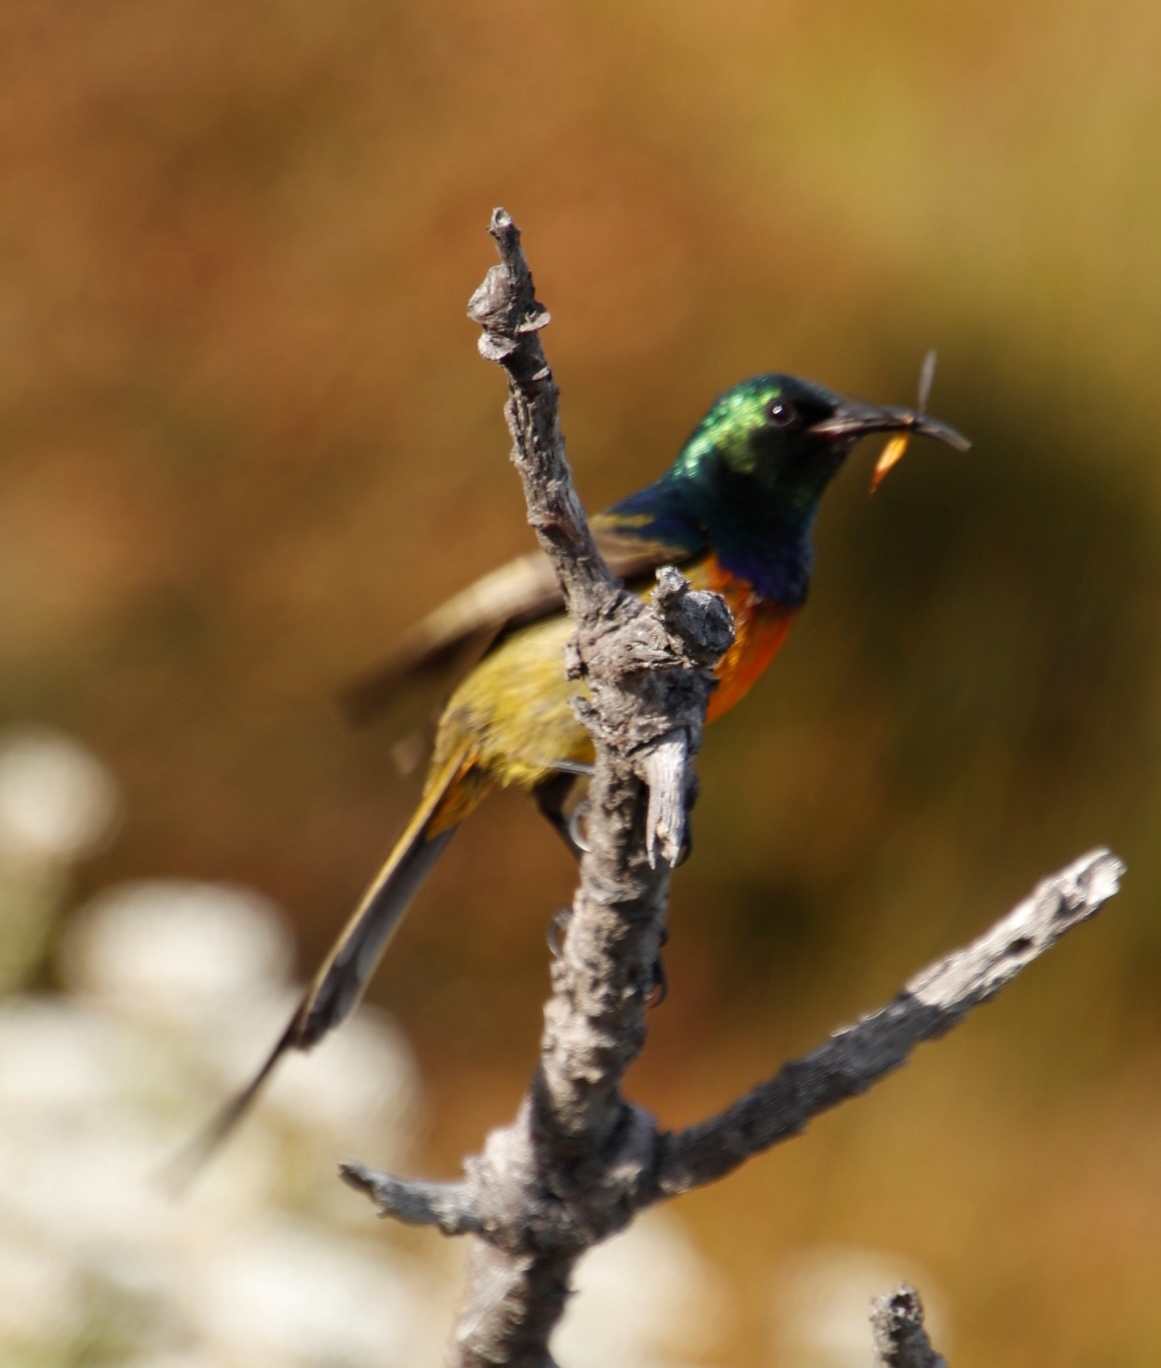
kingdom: Animalia
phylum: Chordata
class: Aves
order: Passeriformes
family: Nectariniidae
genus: Anthobaphes
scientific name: Anthobaphes violacea
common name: Orange-breasted sunbird
